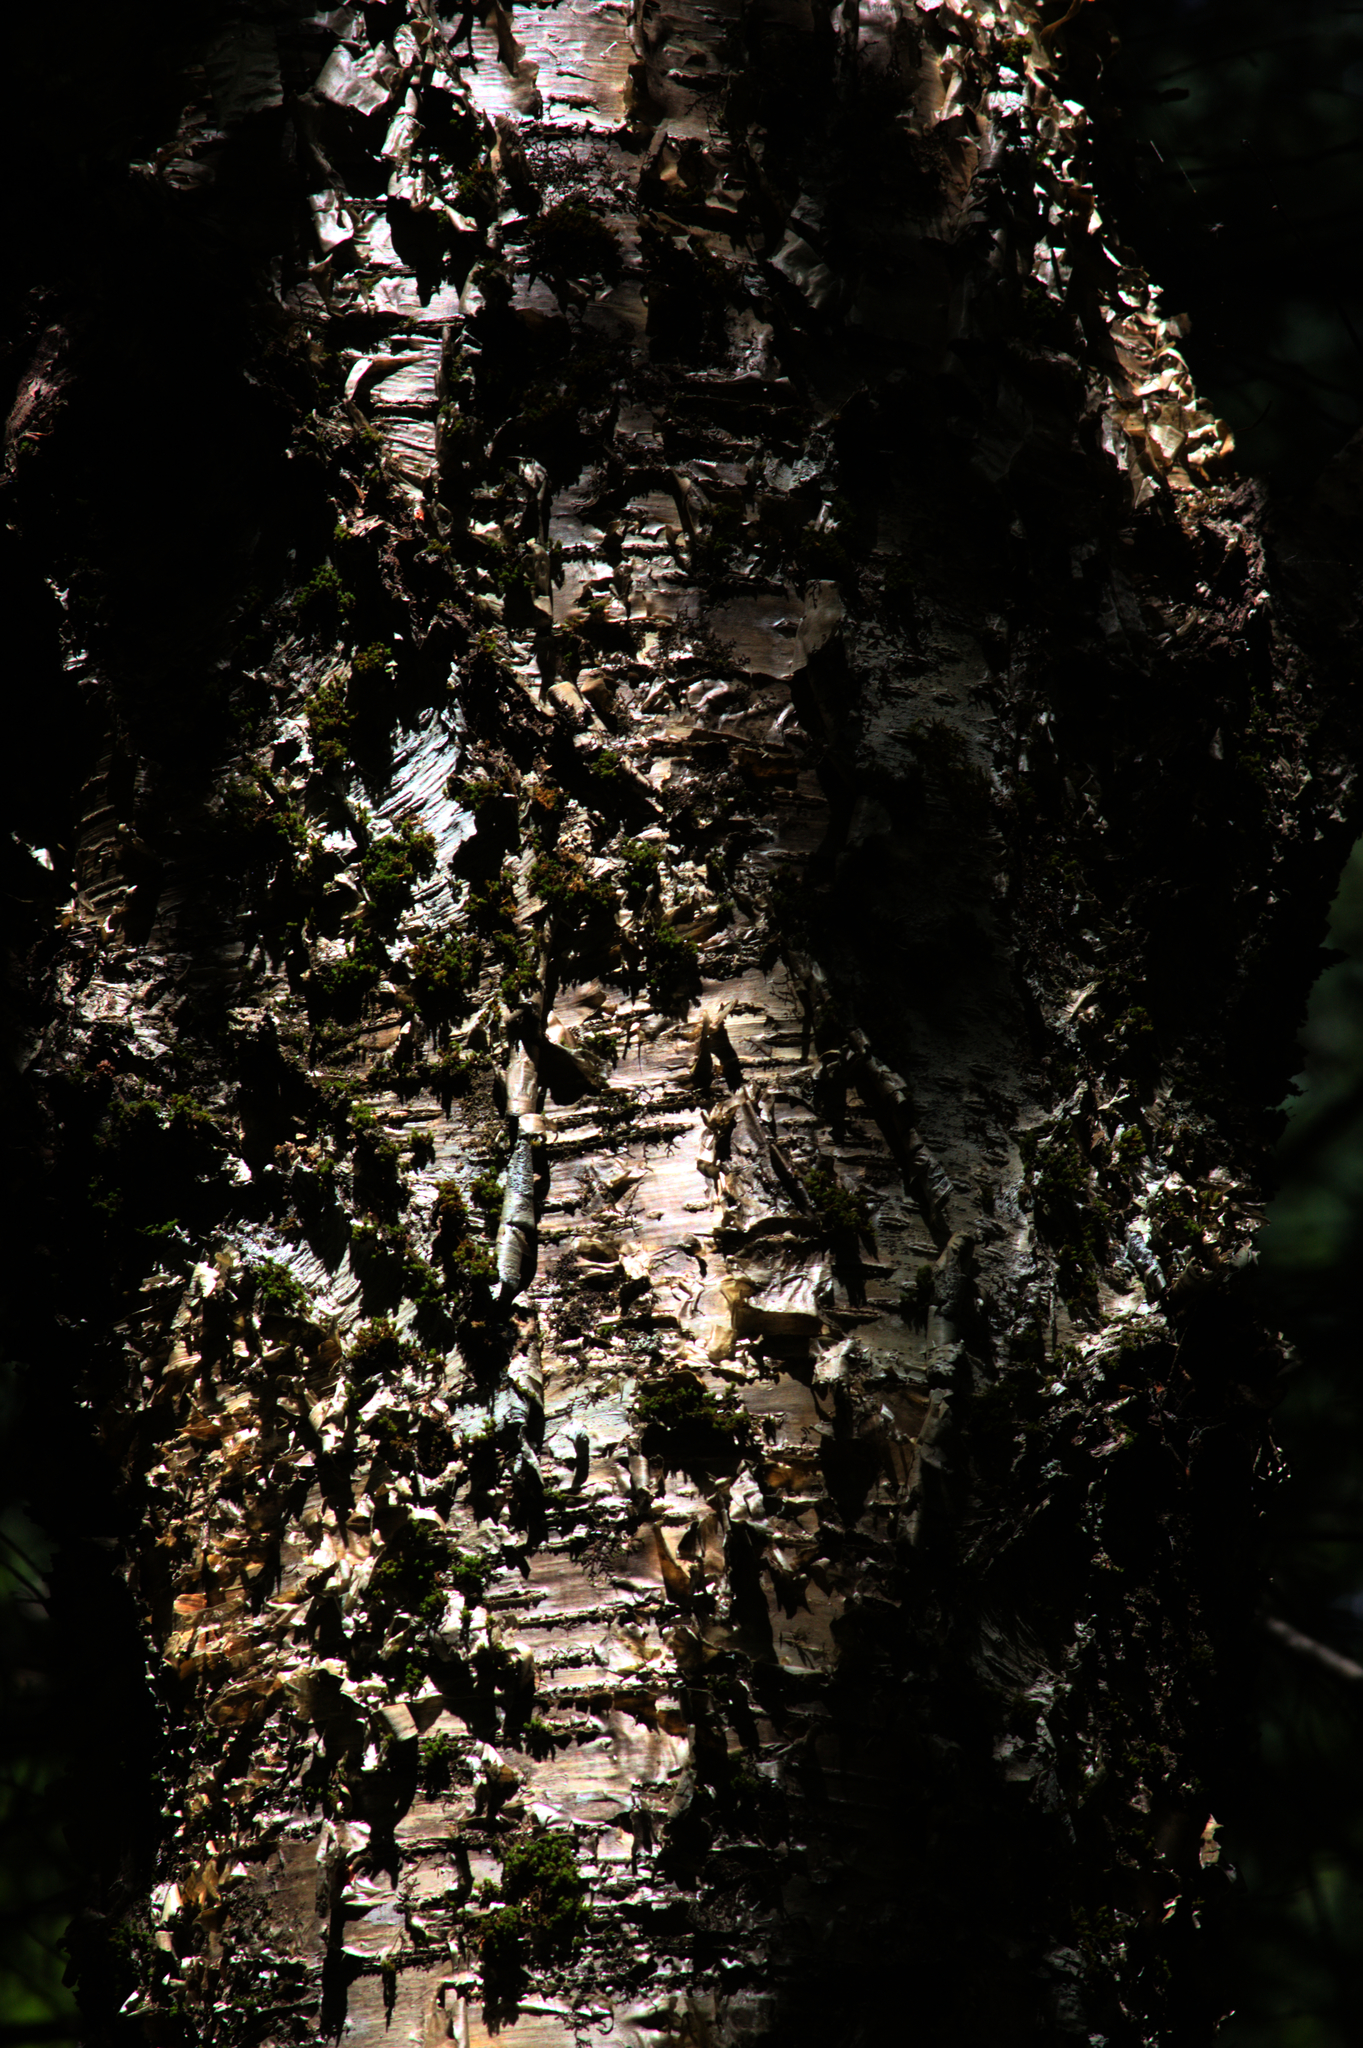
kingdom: Plantae
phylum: Tracheophyta
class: Magnoliopsida
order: Fagales
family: Betulaceae
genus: Betula
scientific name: Betula alleghaniensis
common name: Yellow birch
